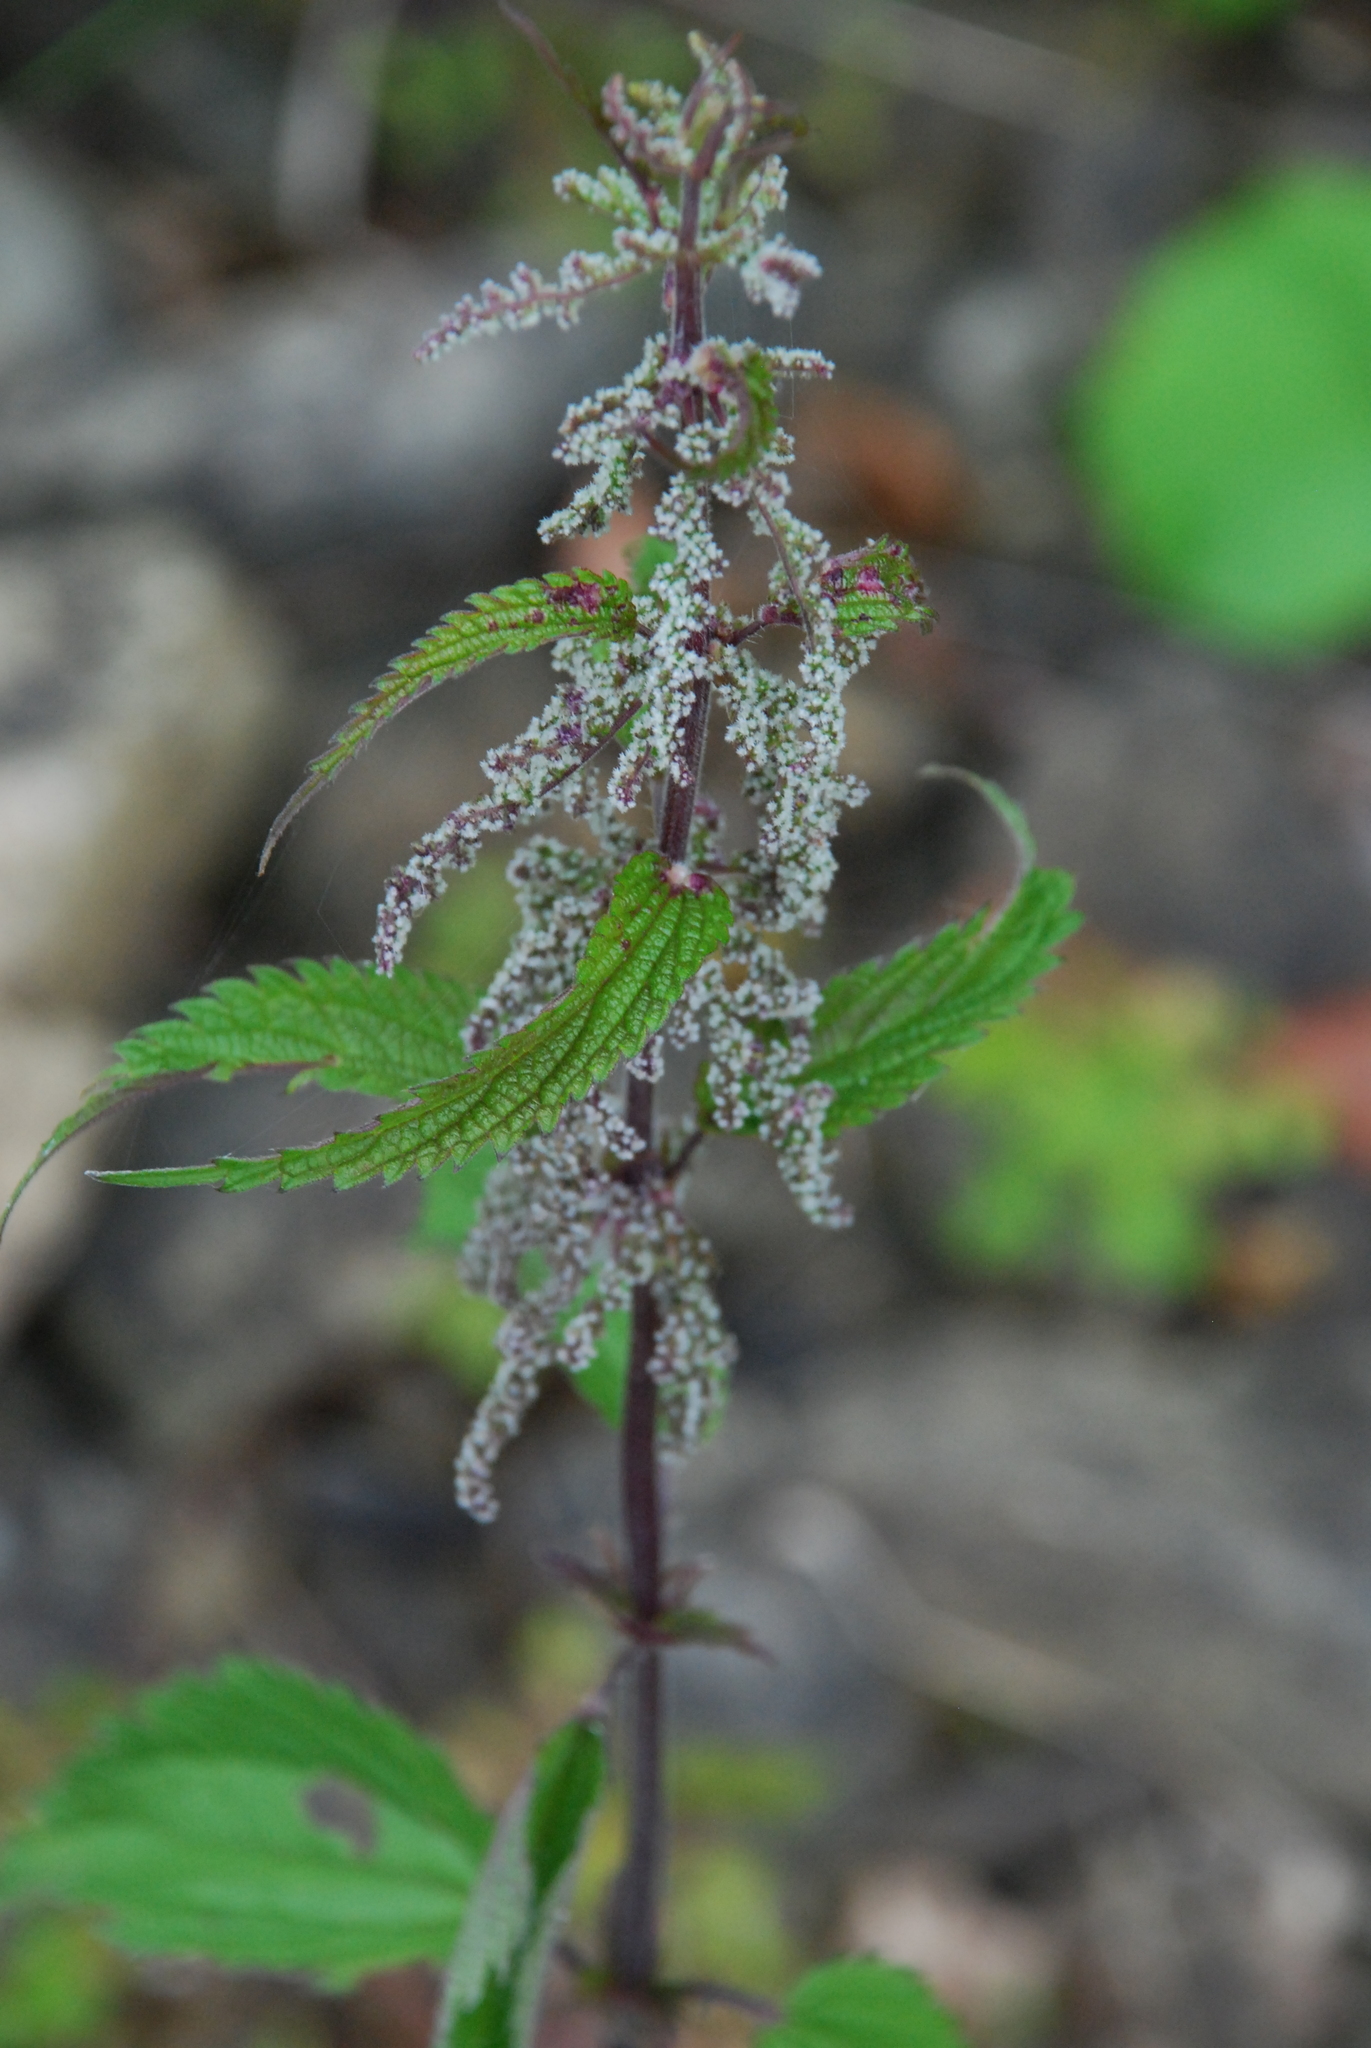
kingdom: Plantae
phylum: Tracheophyta
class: Magnoliopsida
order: Rosales
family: Urticaceae
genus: Urtica
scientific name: Urtica dioica
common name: Common nettle
